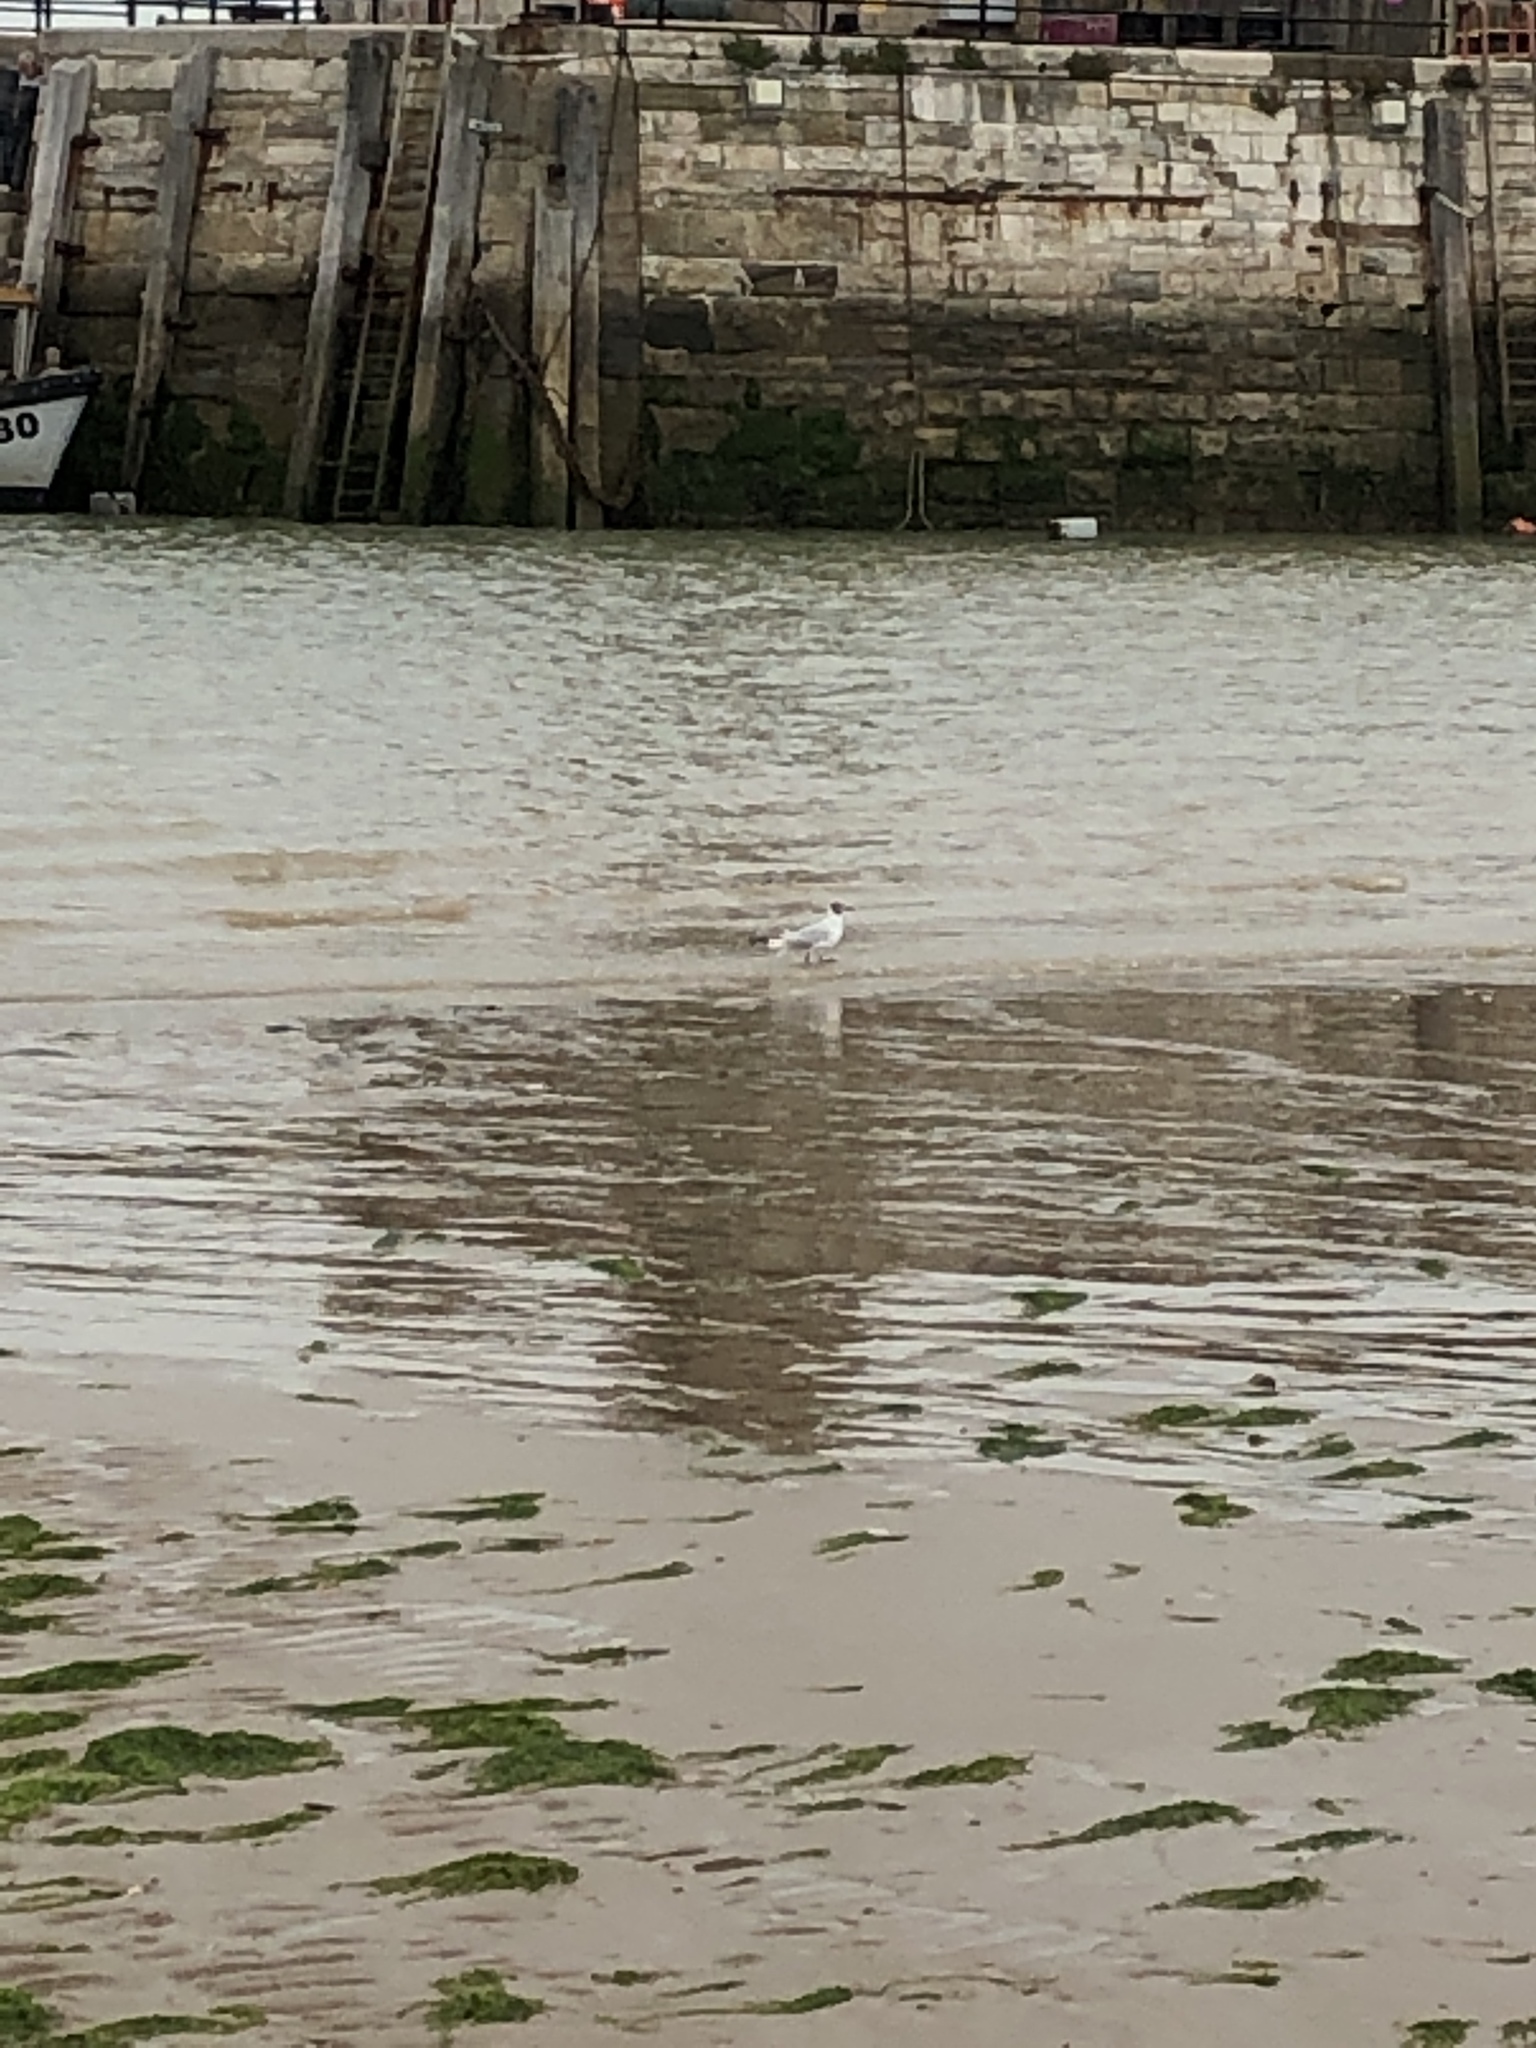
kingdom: Animalia
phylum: Chordata
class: Aves
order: Charadriiformes
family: Laridae
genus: Chroicocephalus
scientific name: Chroicocephalus ridibundus
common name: Black-headed gull
